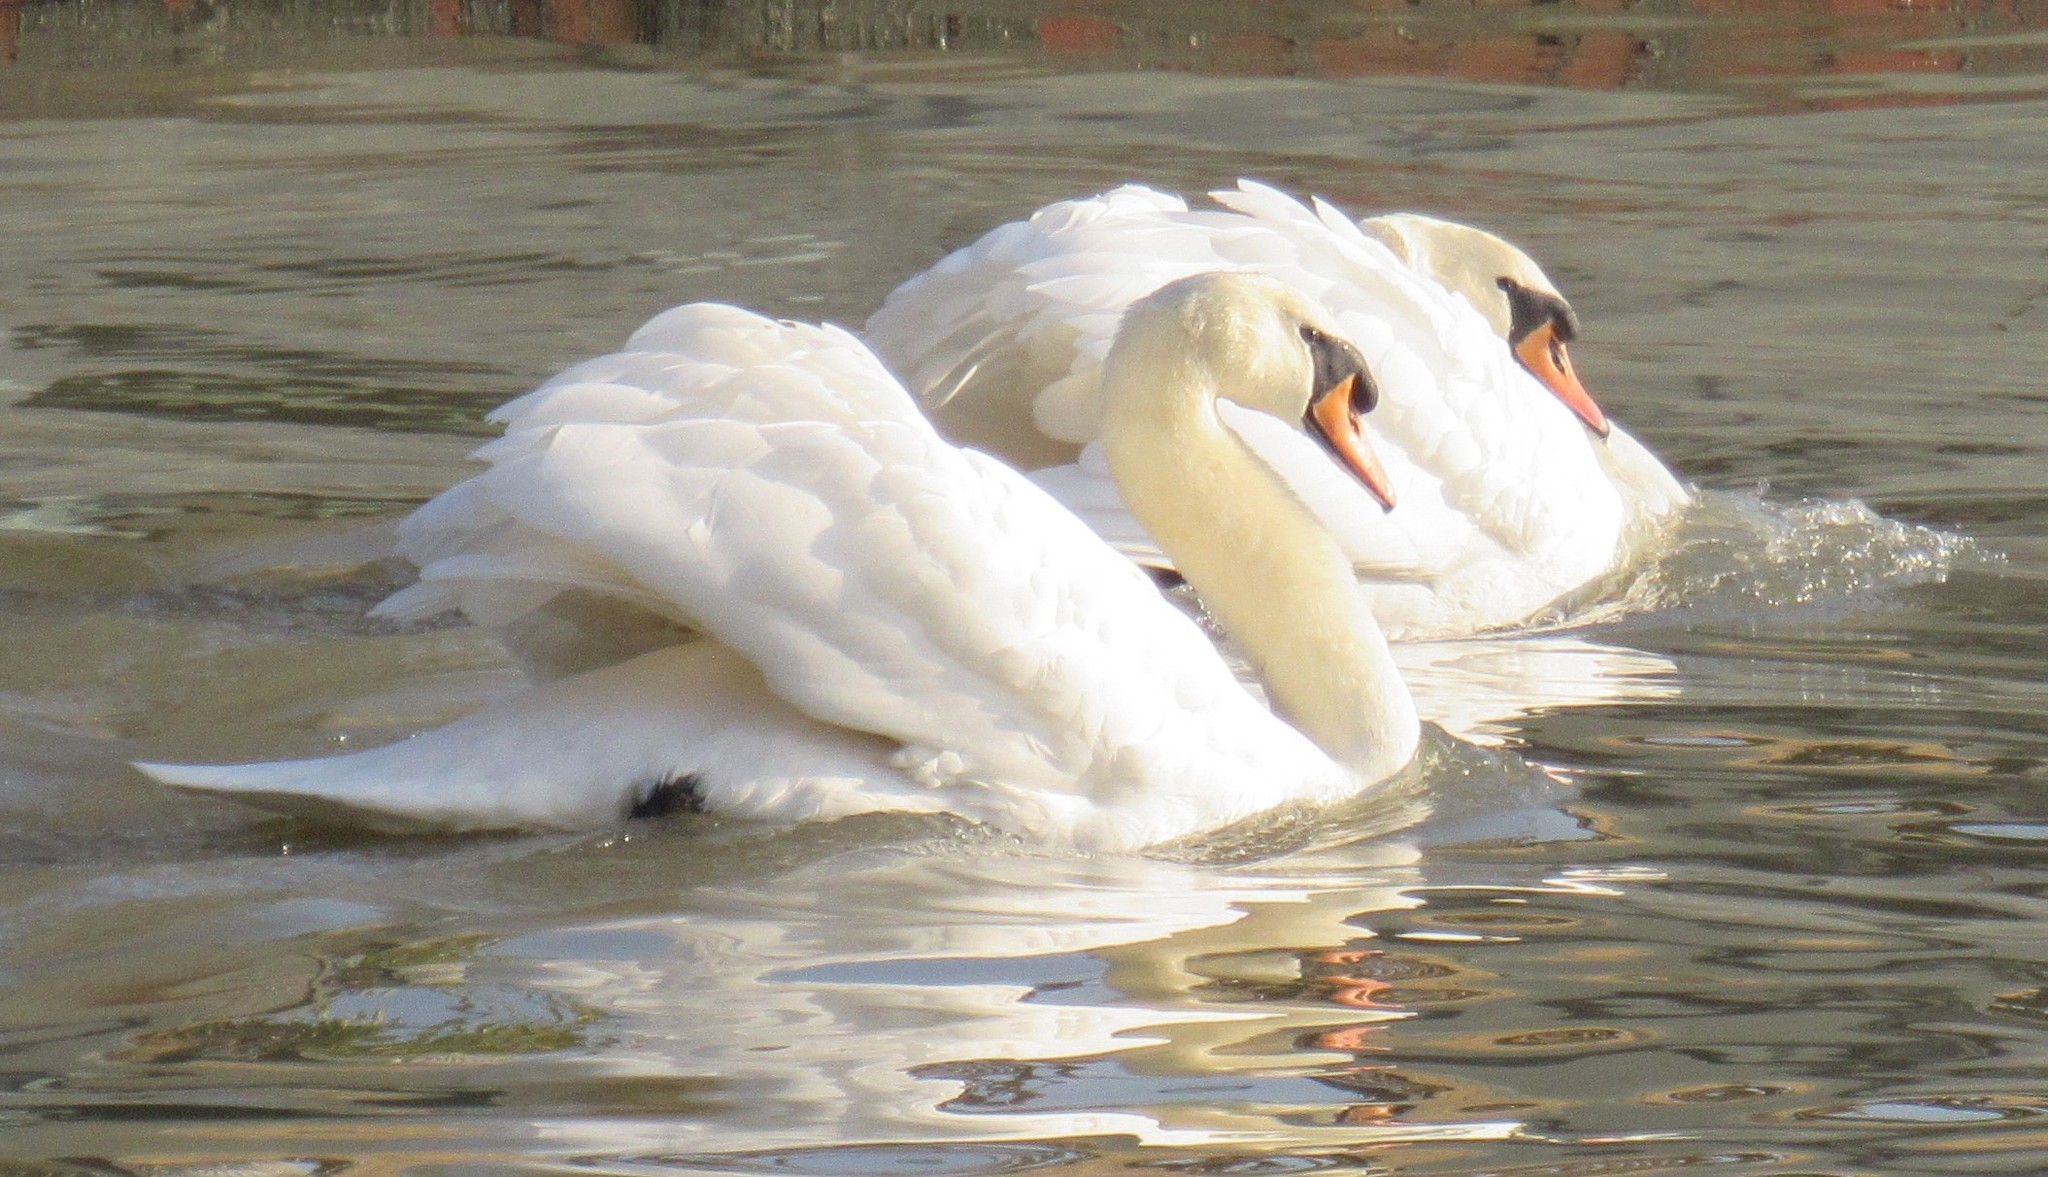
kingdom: Animalia
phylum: Chordata
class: Aves
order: Anseriformes
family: Anatidae
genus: Cygnus
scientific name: Cygnus olor
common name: Mute swan
